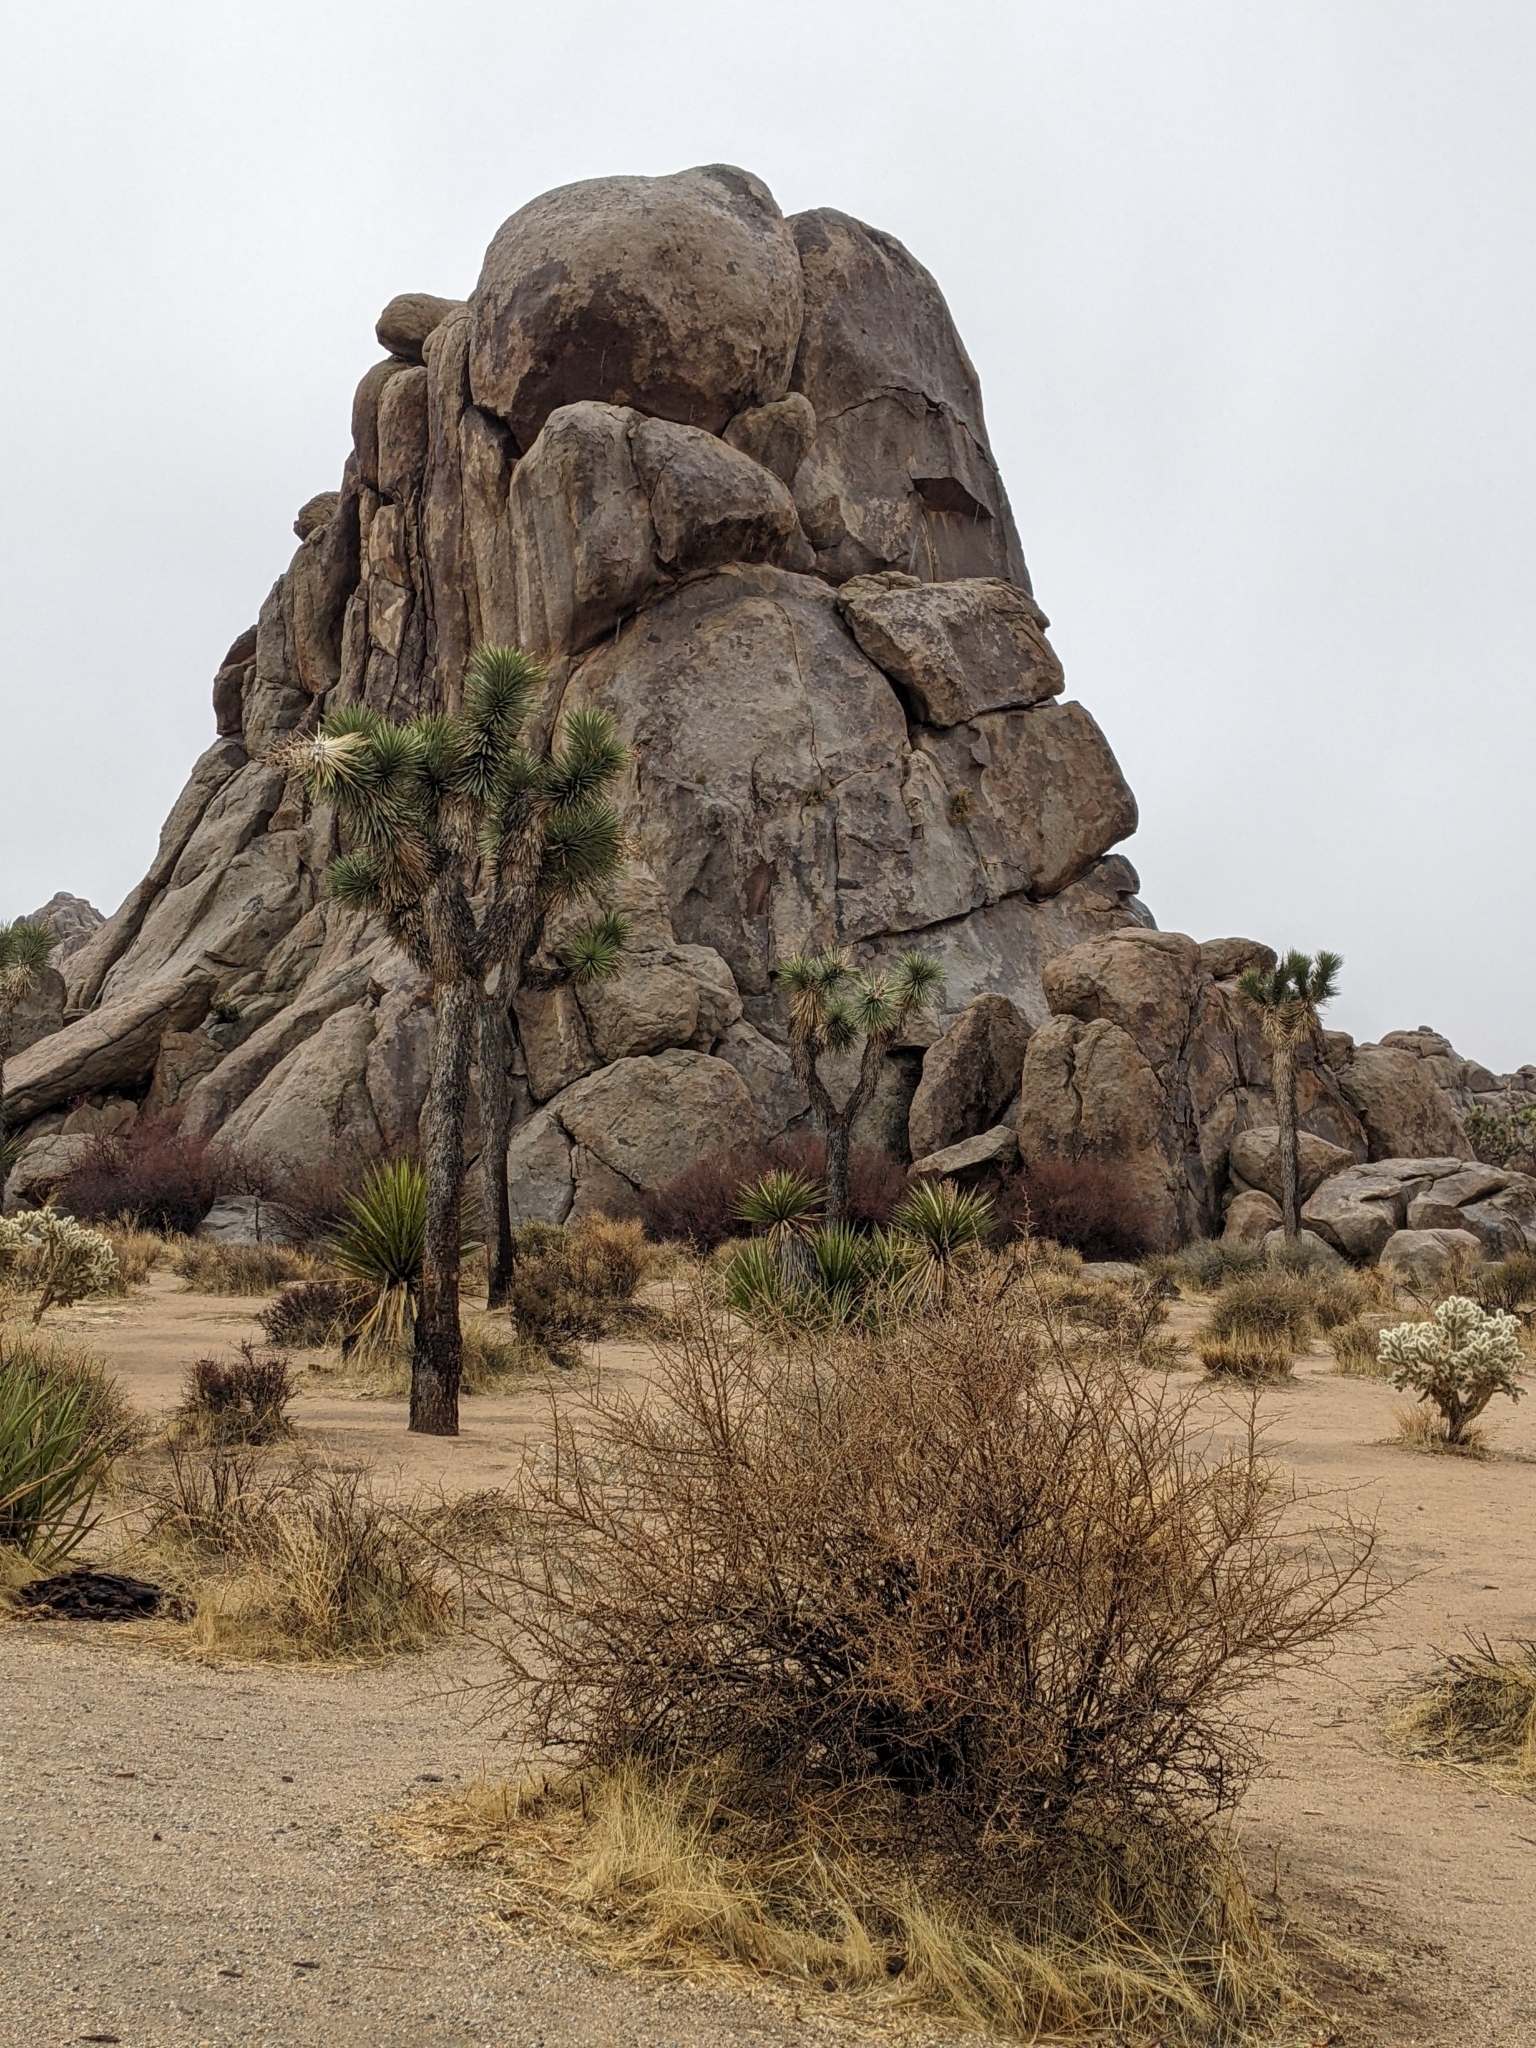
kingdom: Plantae
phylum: Tracheophyta
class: Liliopsida
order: Asparagales
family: Asparagaceae
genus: Yucca
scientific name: Yucca brevifolia
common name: Joshua tree
